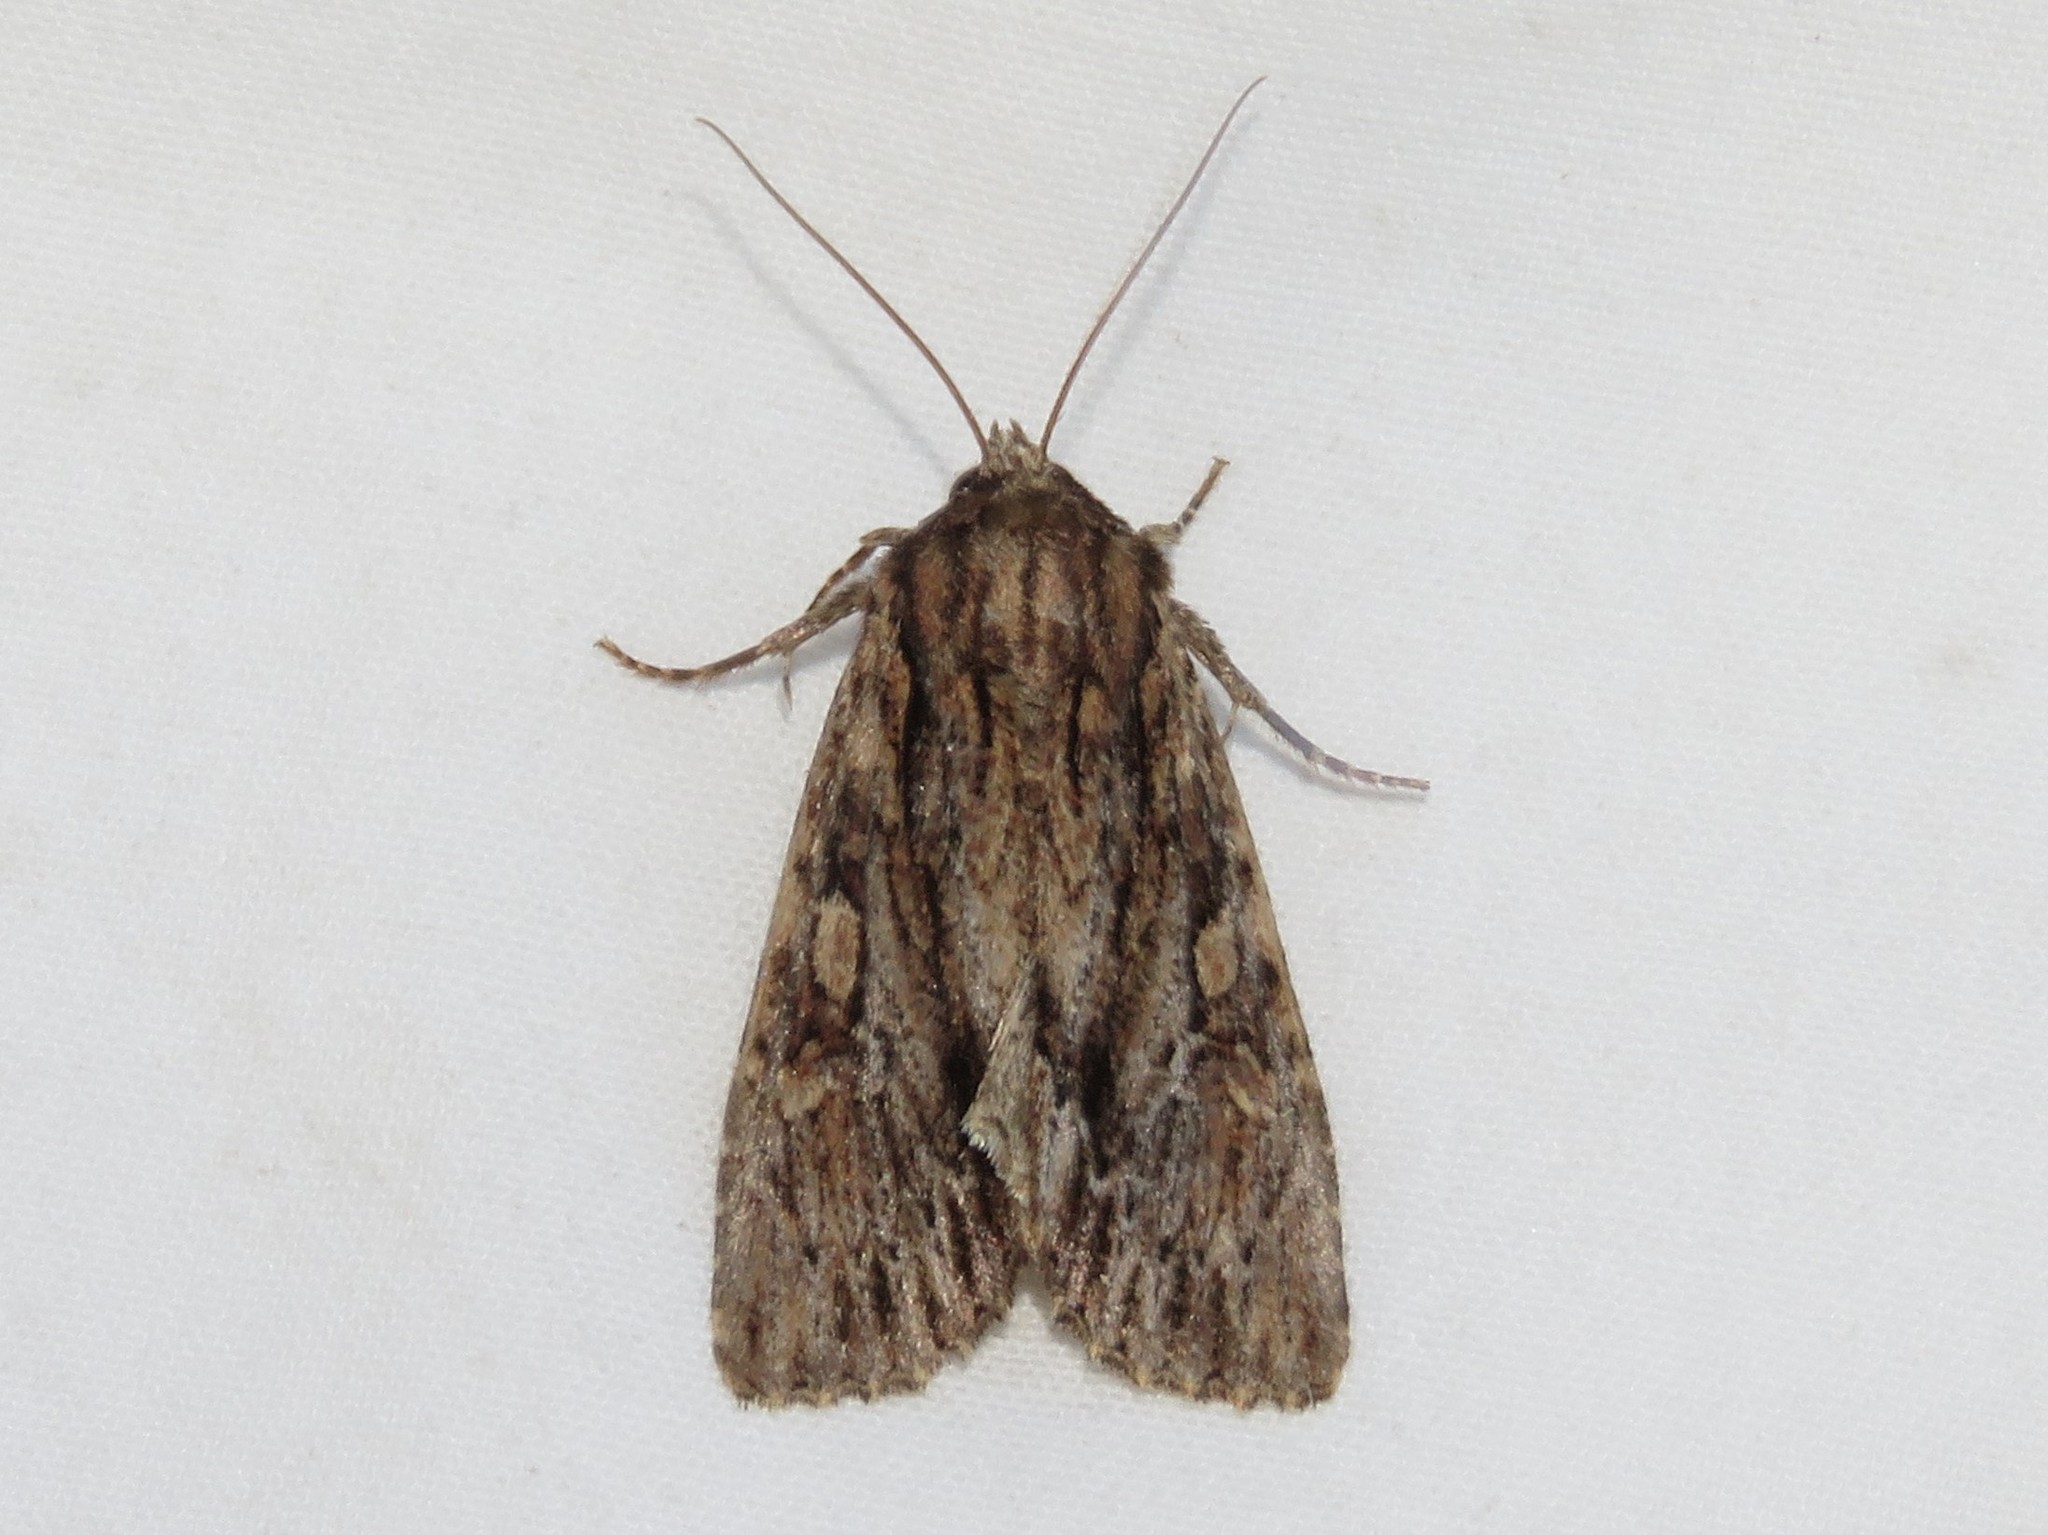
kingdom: Animalia
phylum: Arthropoda
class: Insecta
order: Lepidoptera
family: Noctuidae
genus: Achatia
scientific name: Achatia confusa
